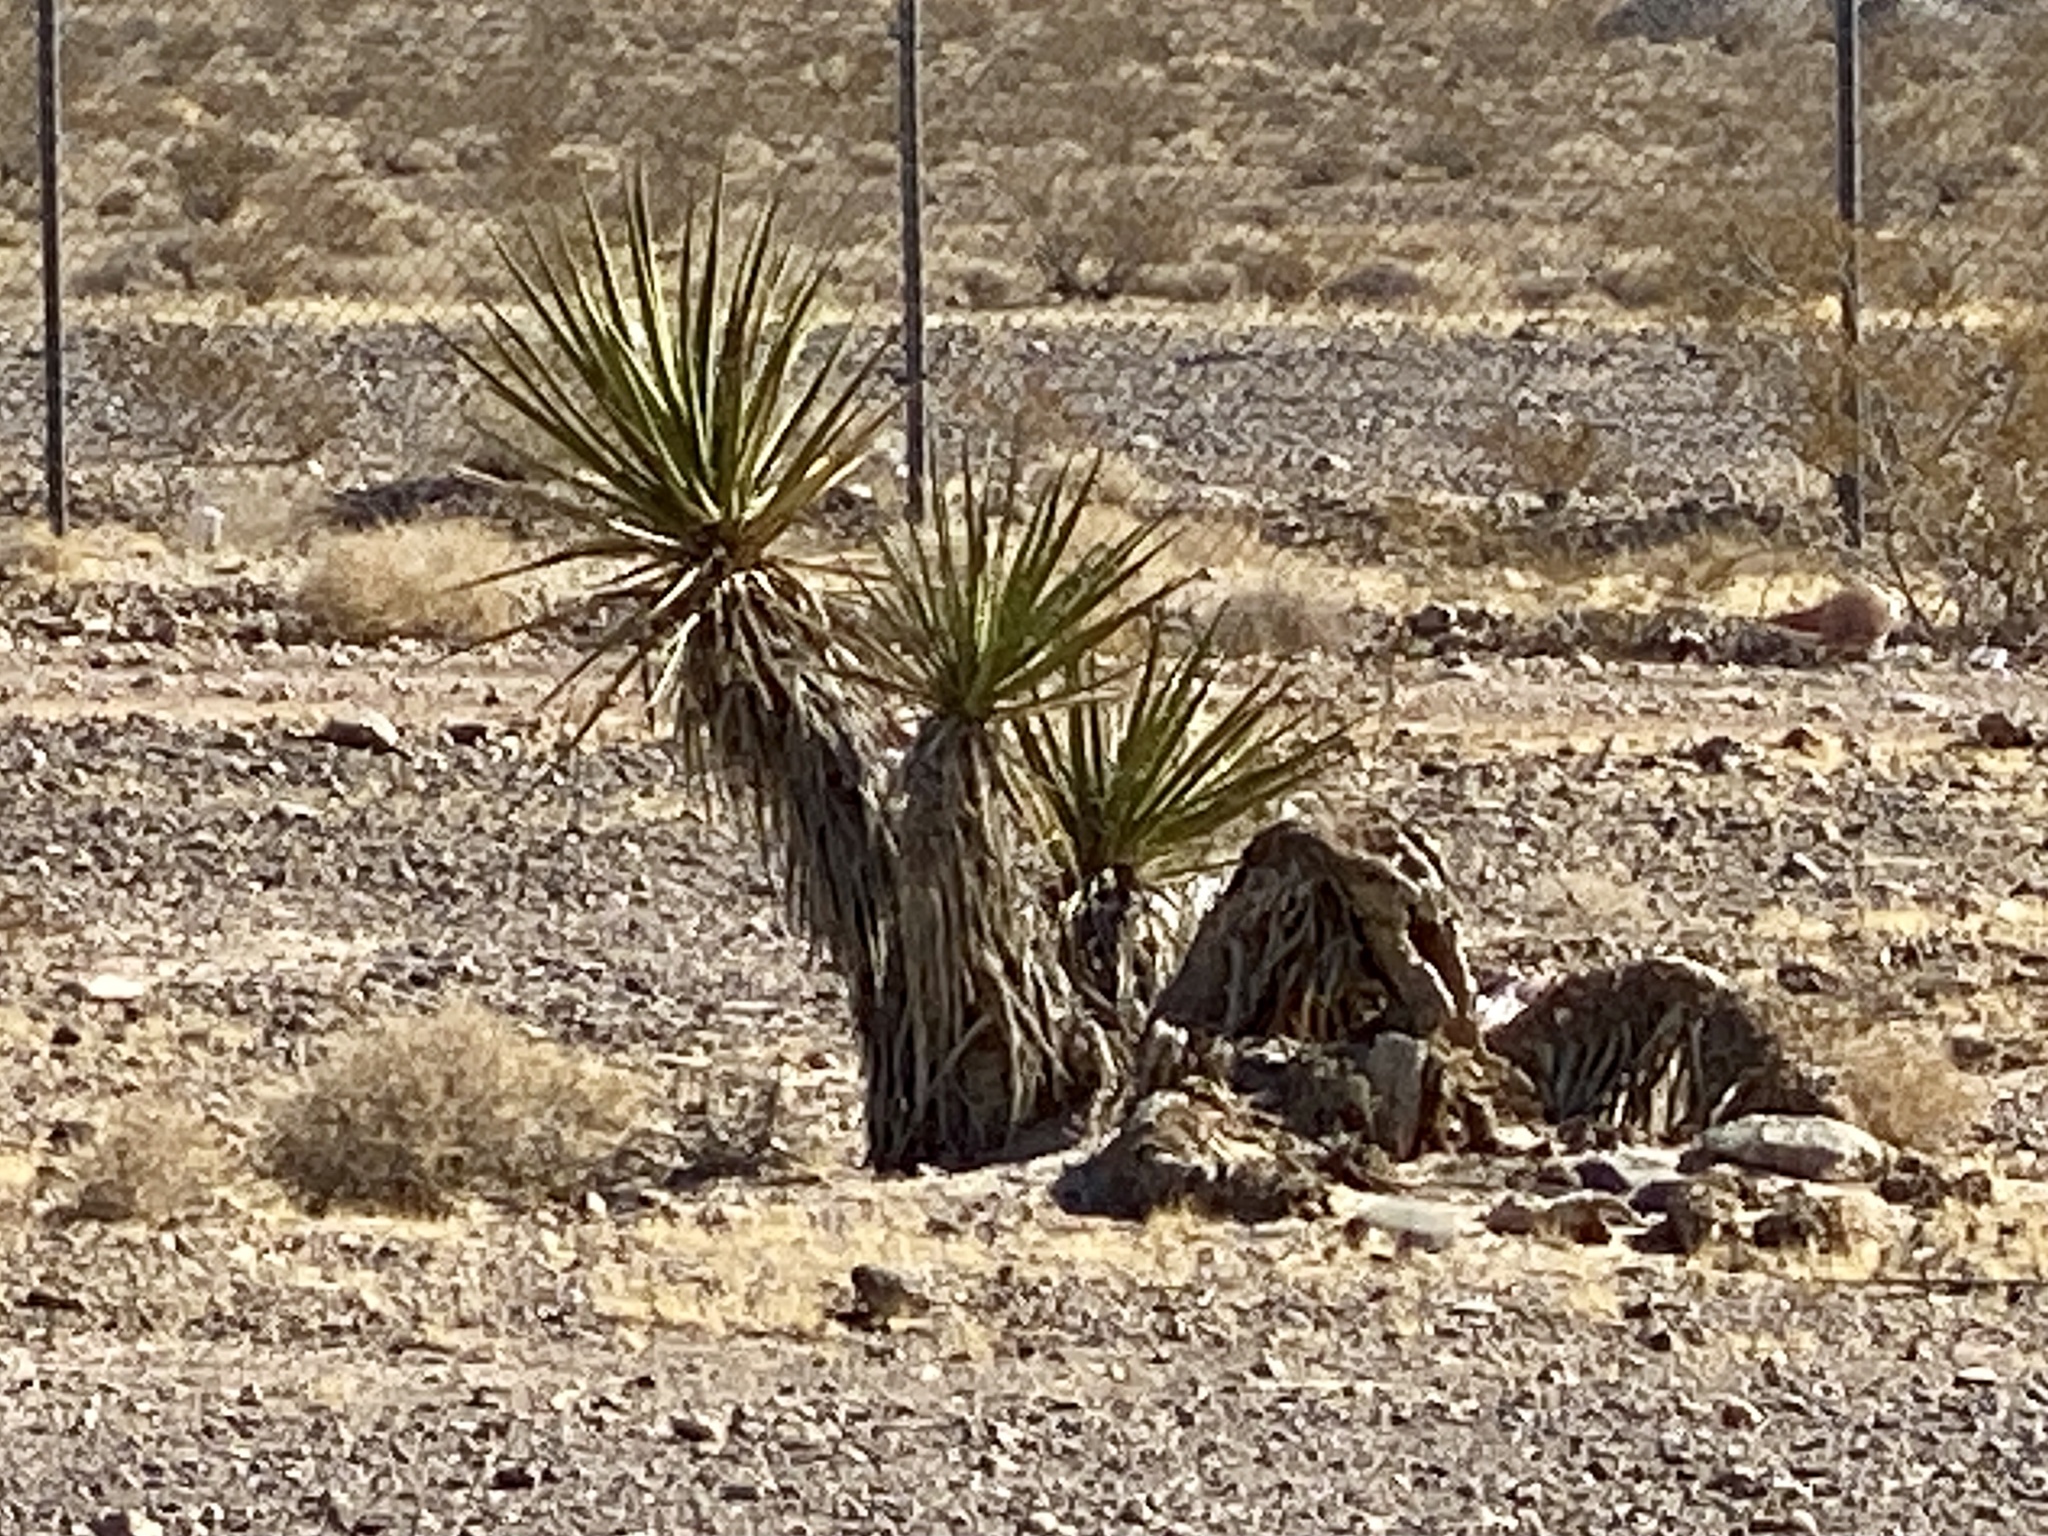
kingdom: Plantae
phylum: Tracheophyta
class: Liliopsida
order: Asparagales
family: Asparagaceae
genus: Yucca
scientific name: Yucca schidigera
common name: Mojave yucca
